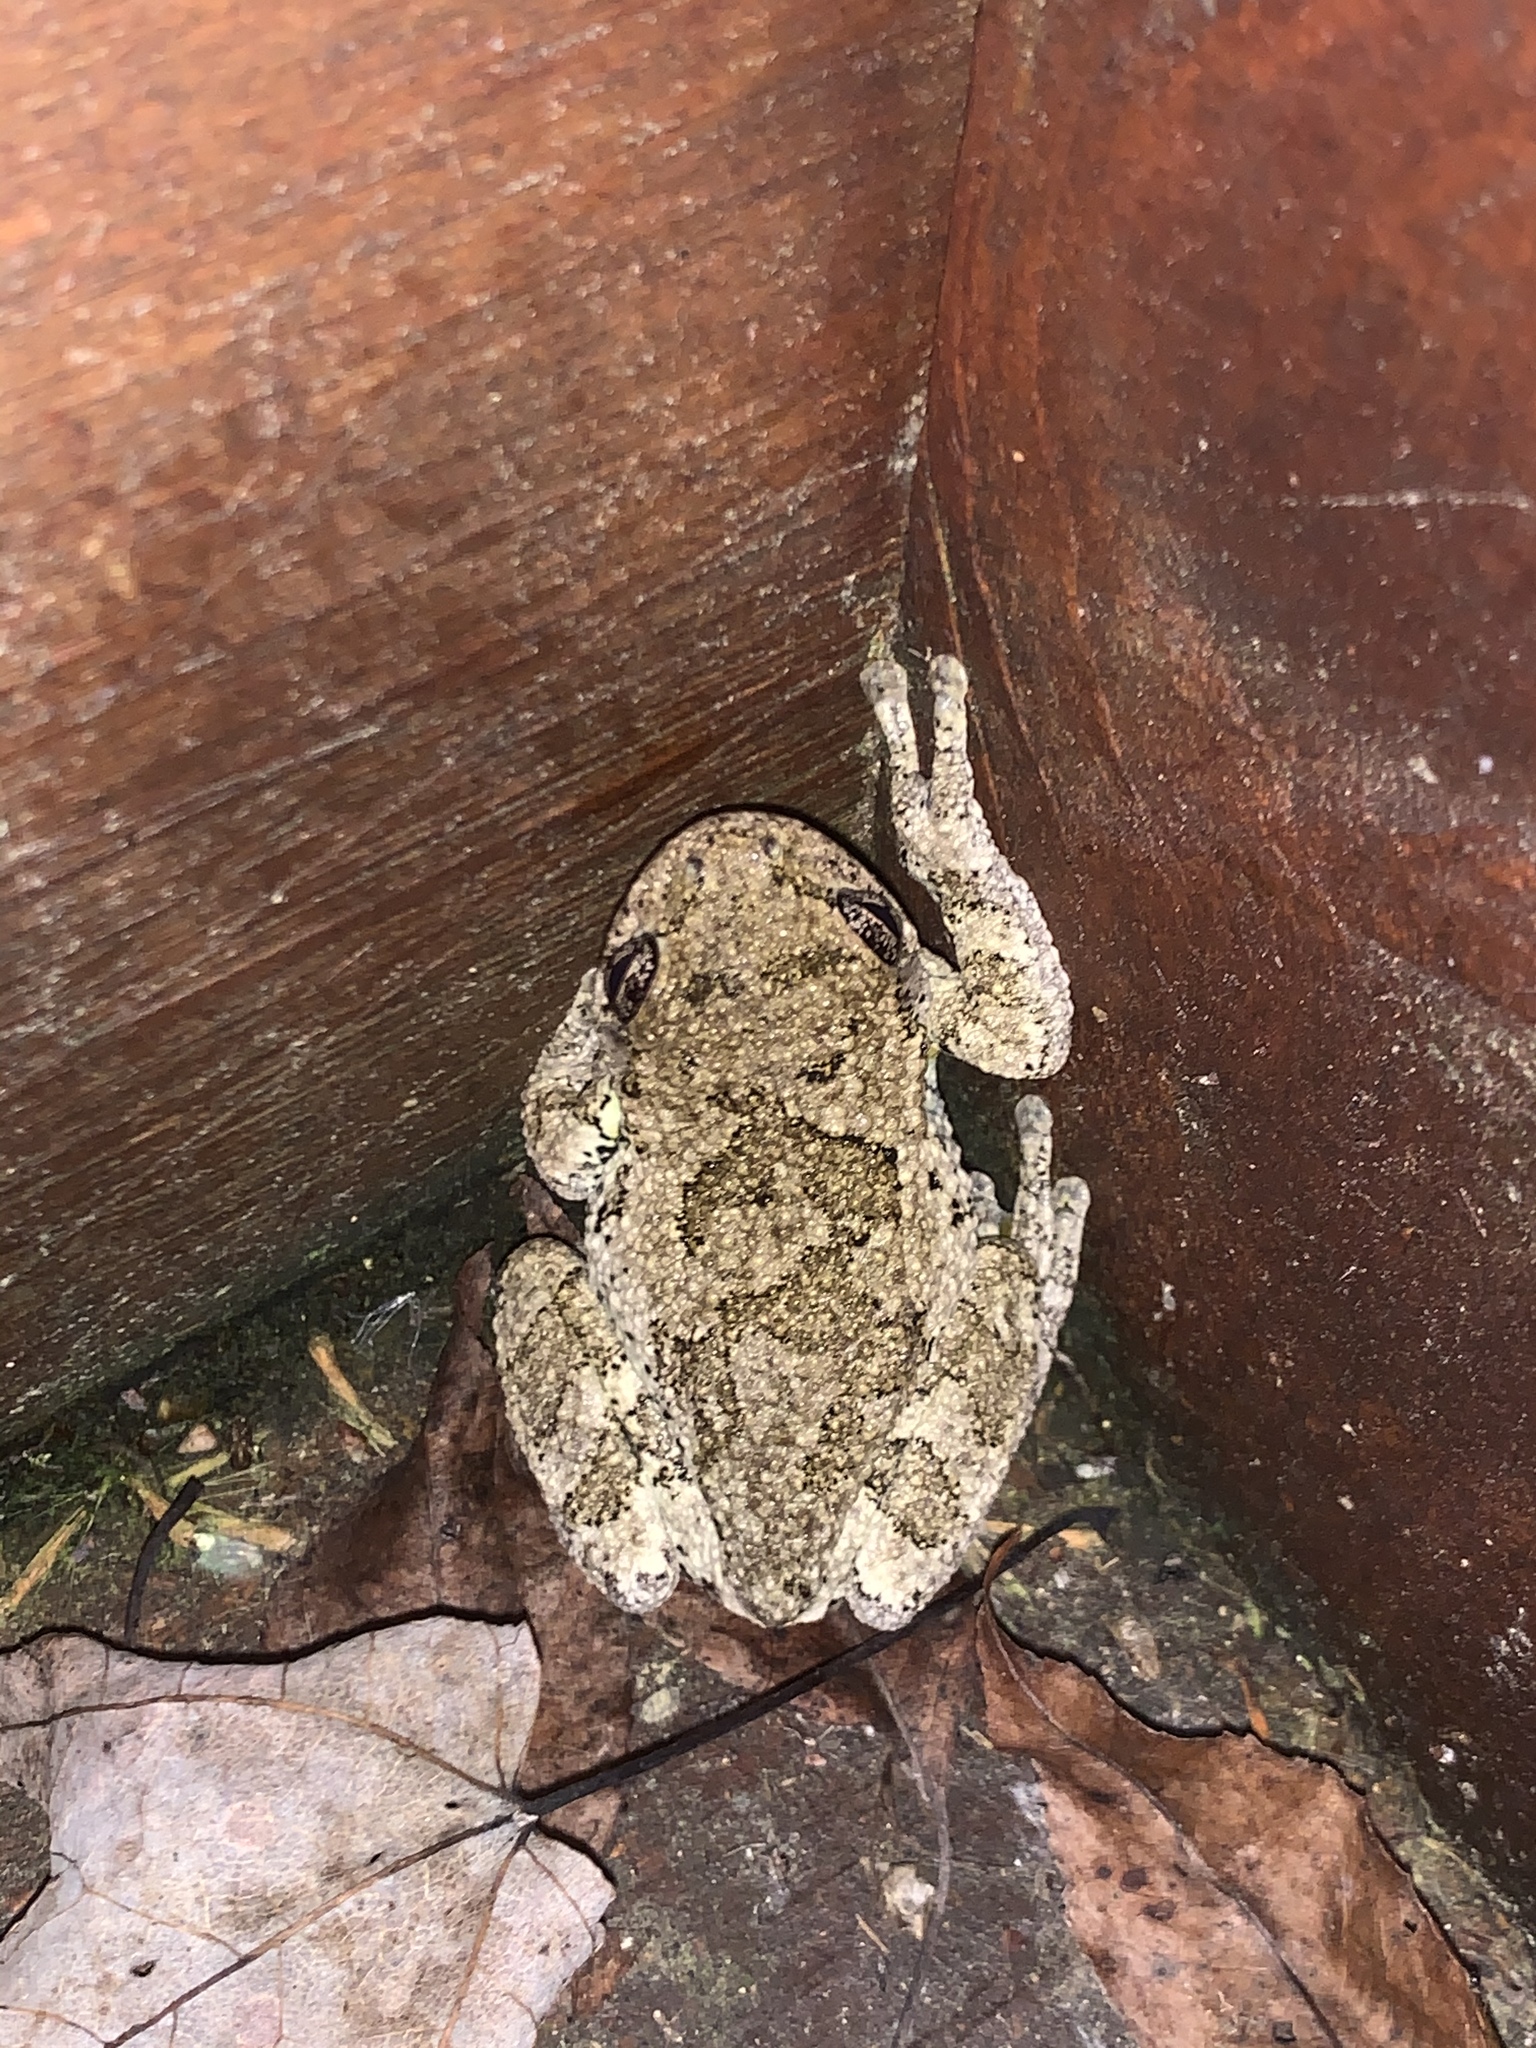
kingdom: Animalia
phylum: Chordata
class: Amphibia
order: Anura
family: Hylidae
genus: Hyla
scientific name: Hyla
